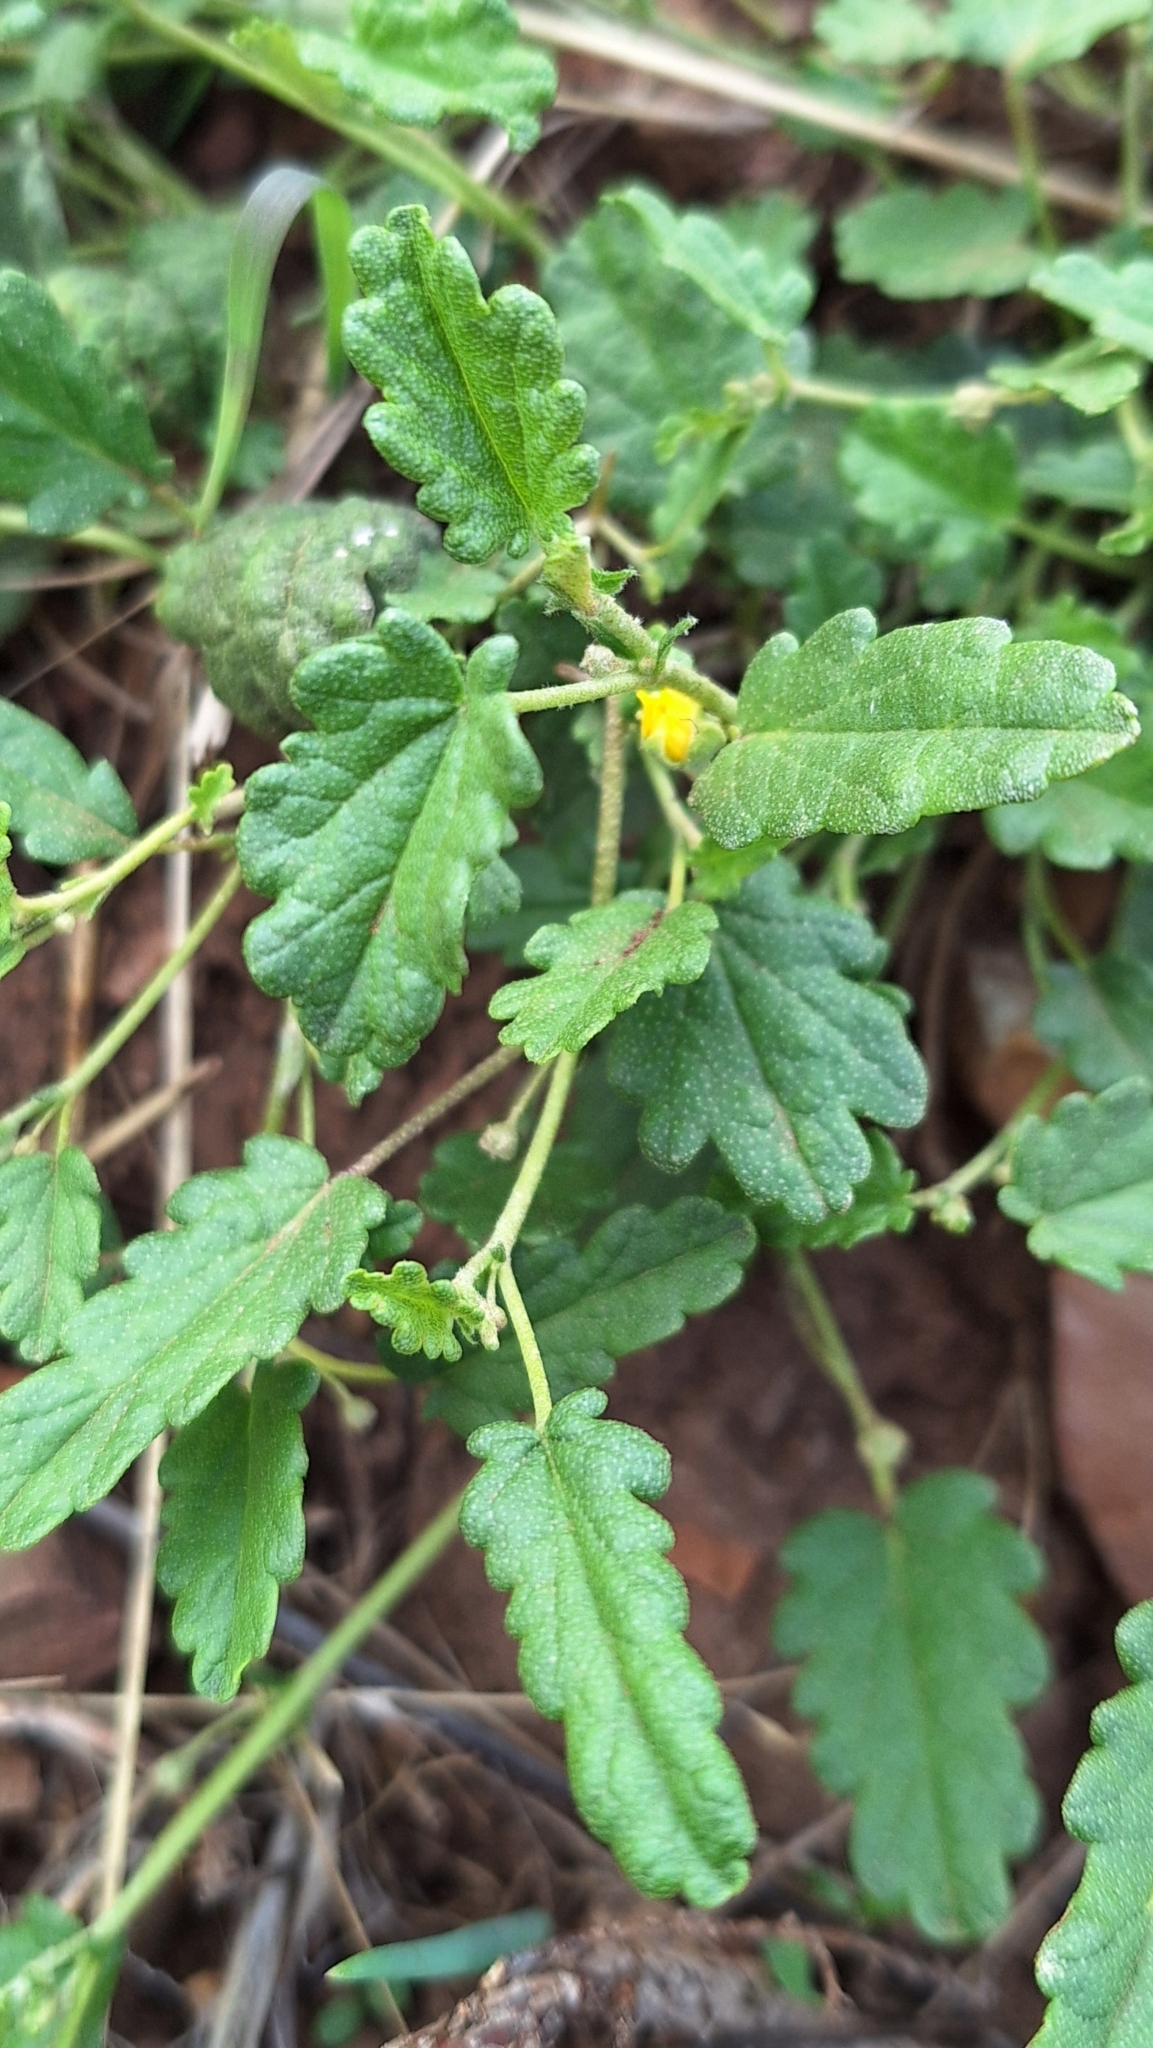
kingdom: Plantae
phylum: Tracheophyta
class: Magnoliopsida
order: Malvales
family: Malvaceae
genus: Sida
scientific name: Sida corrugata
